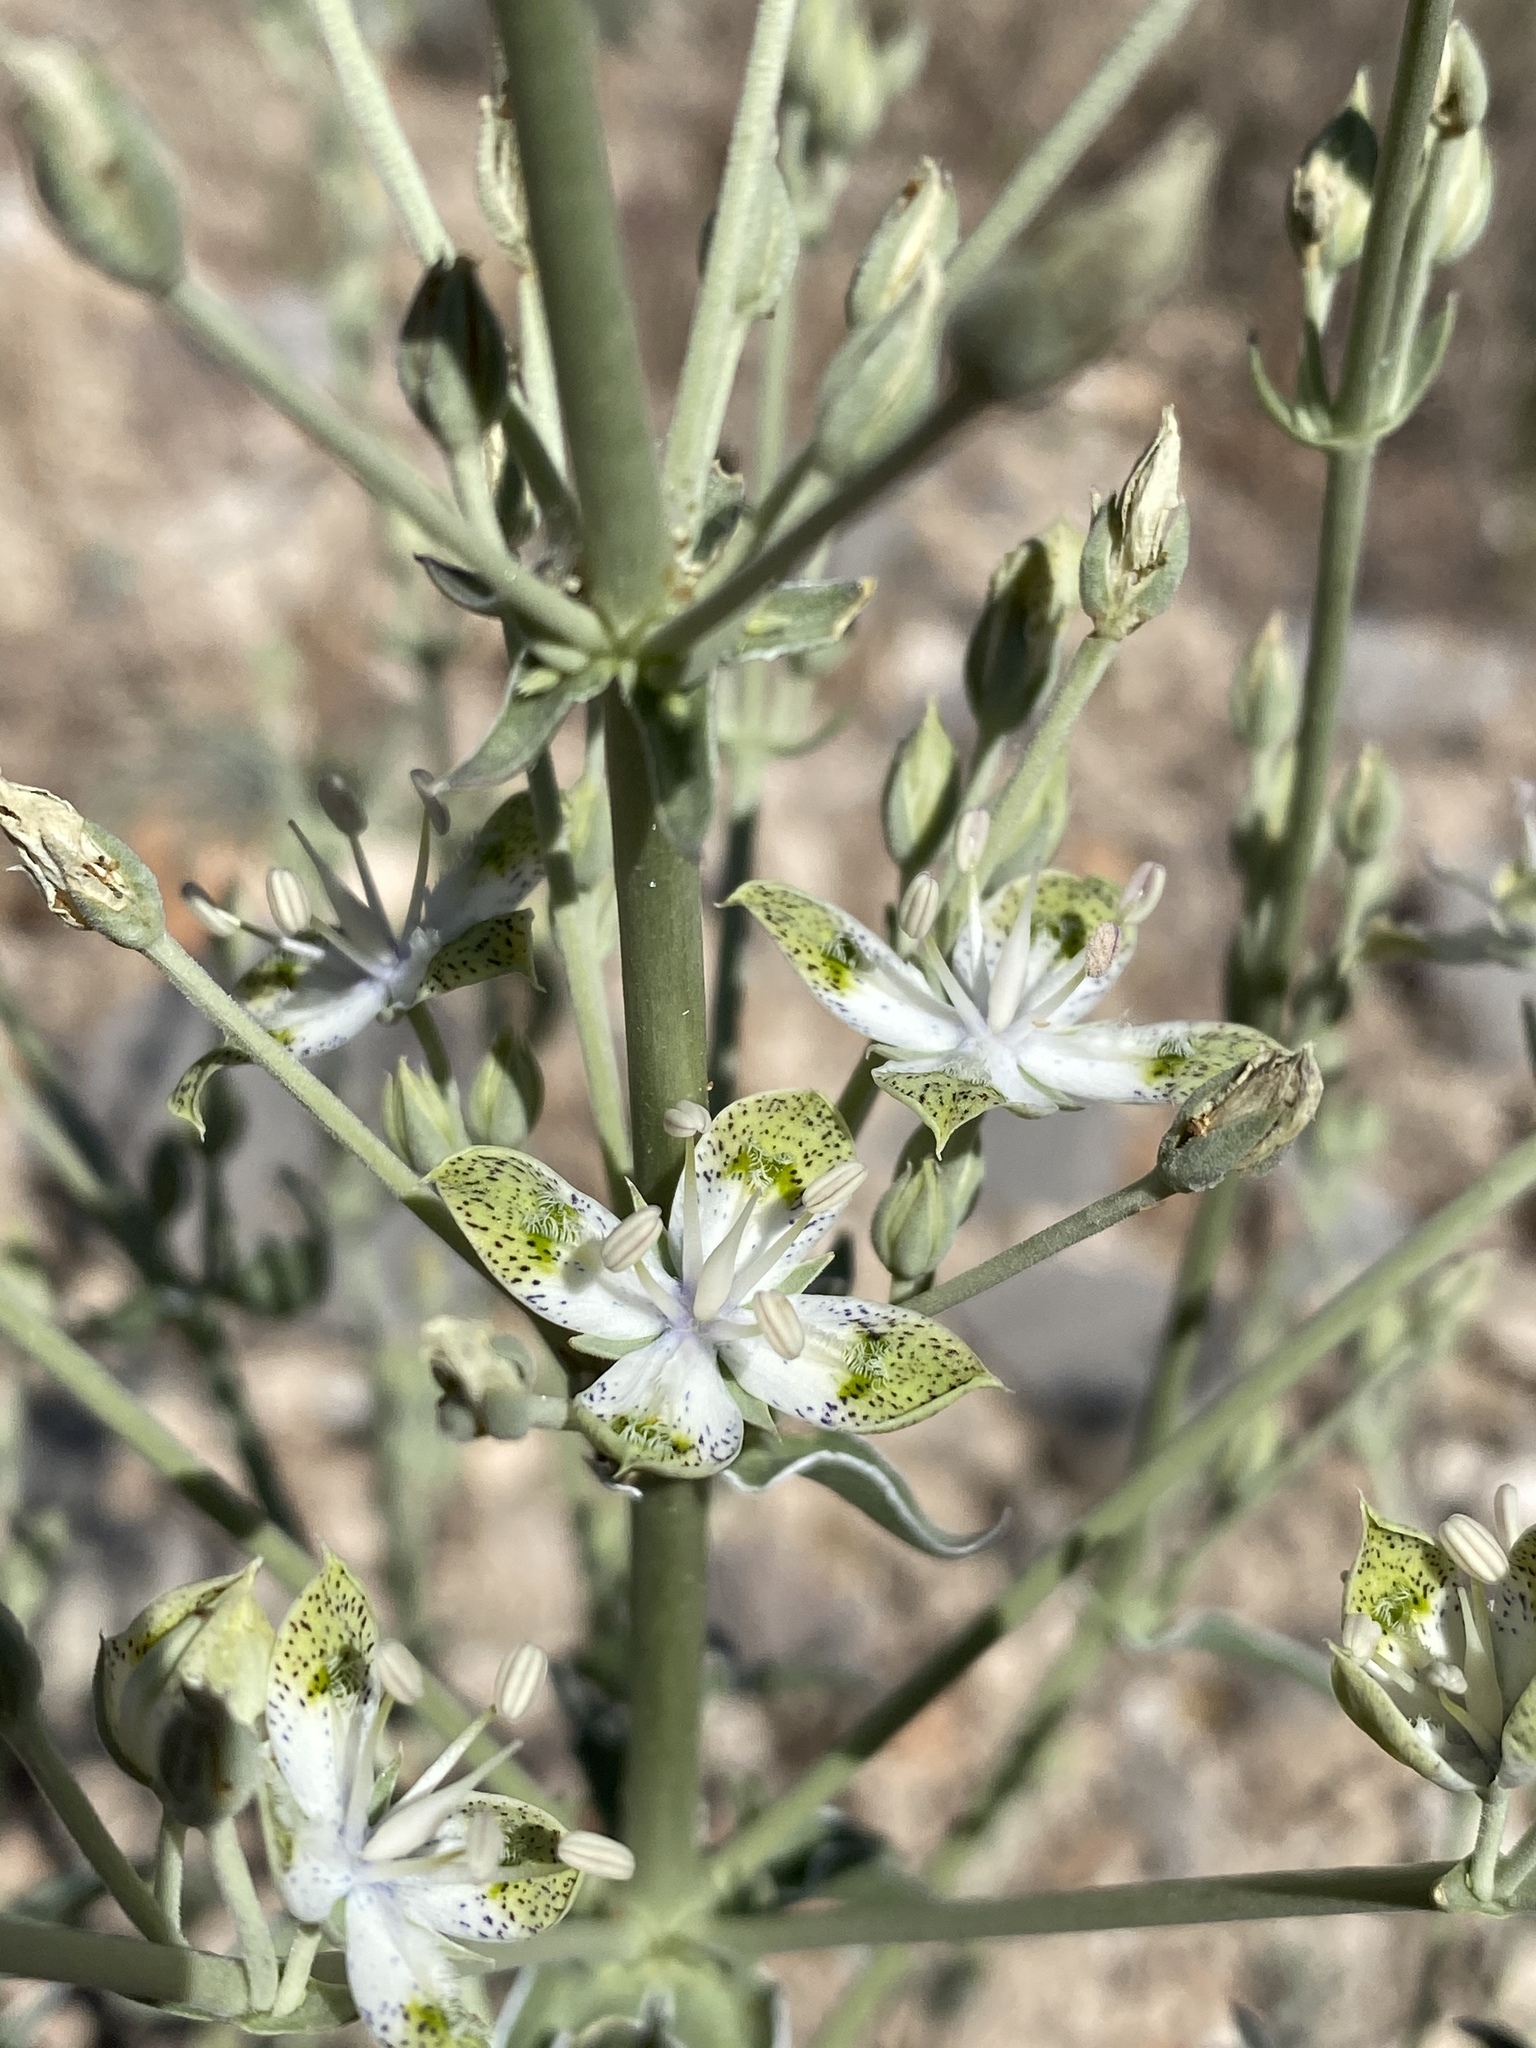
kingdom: Plantae
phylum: Tracheophyta
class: Magnoliopsida
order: Gentianales
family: Gentianaceae
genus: Frasera
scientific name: Frasera albomarginata
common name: Desert frasera
